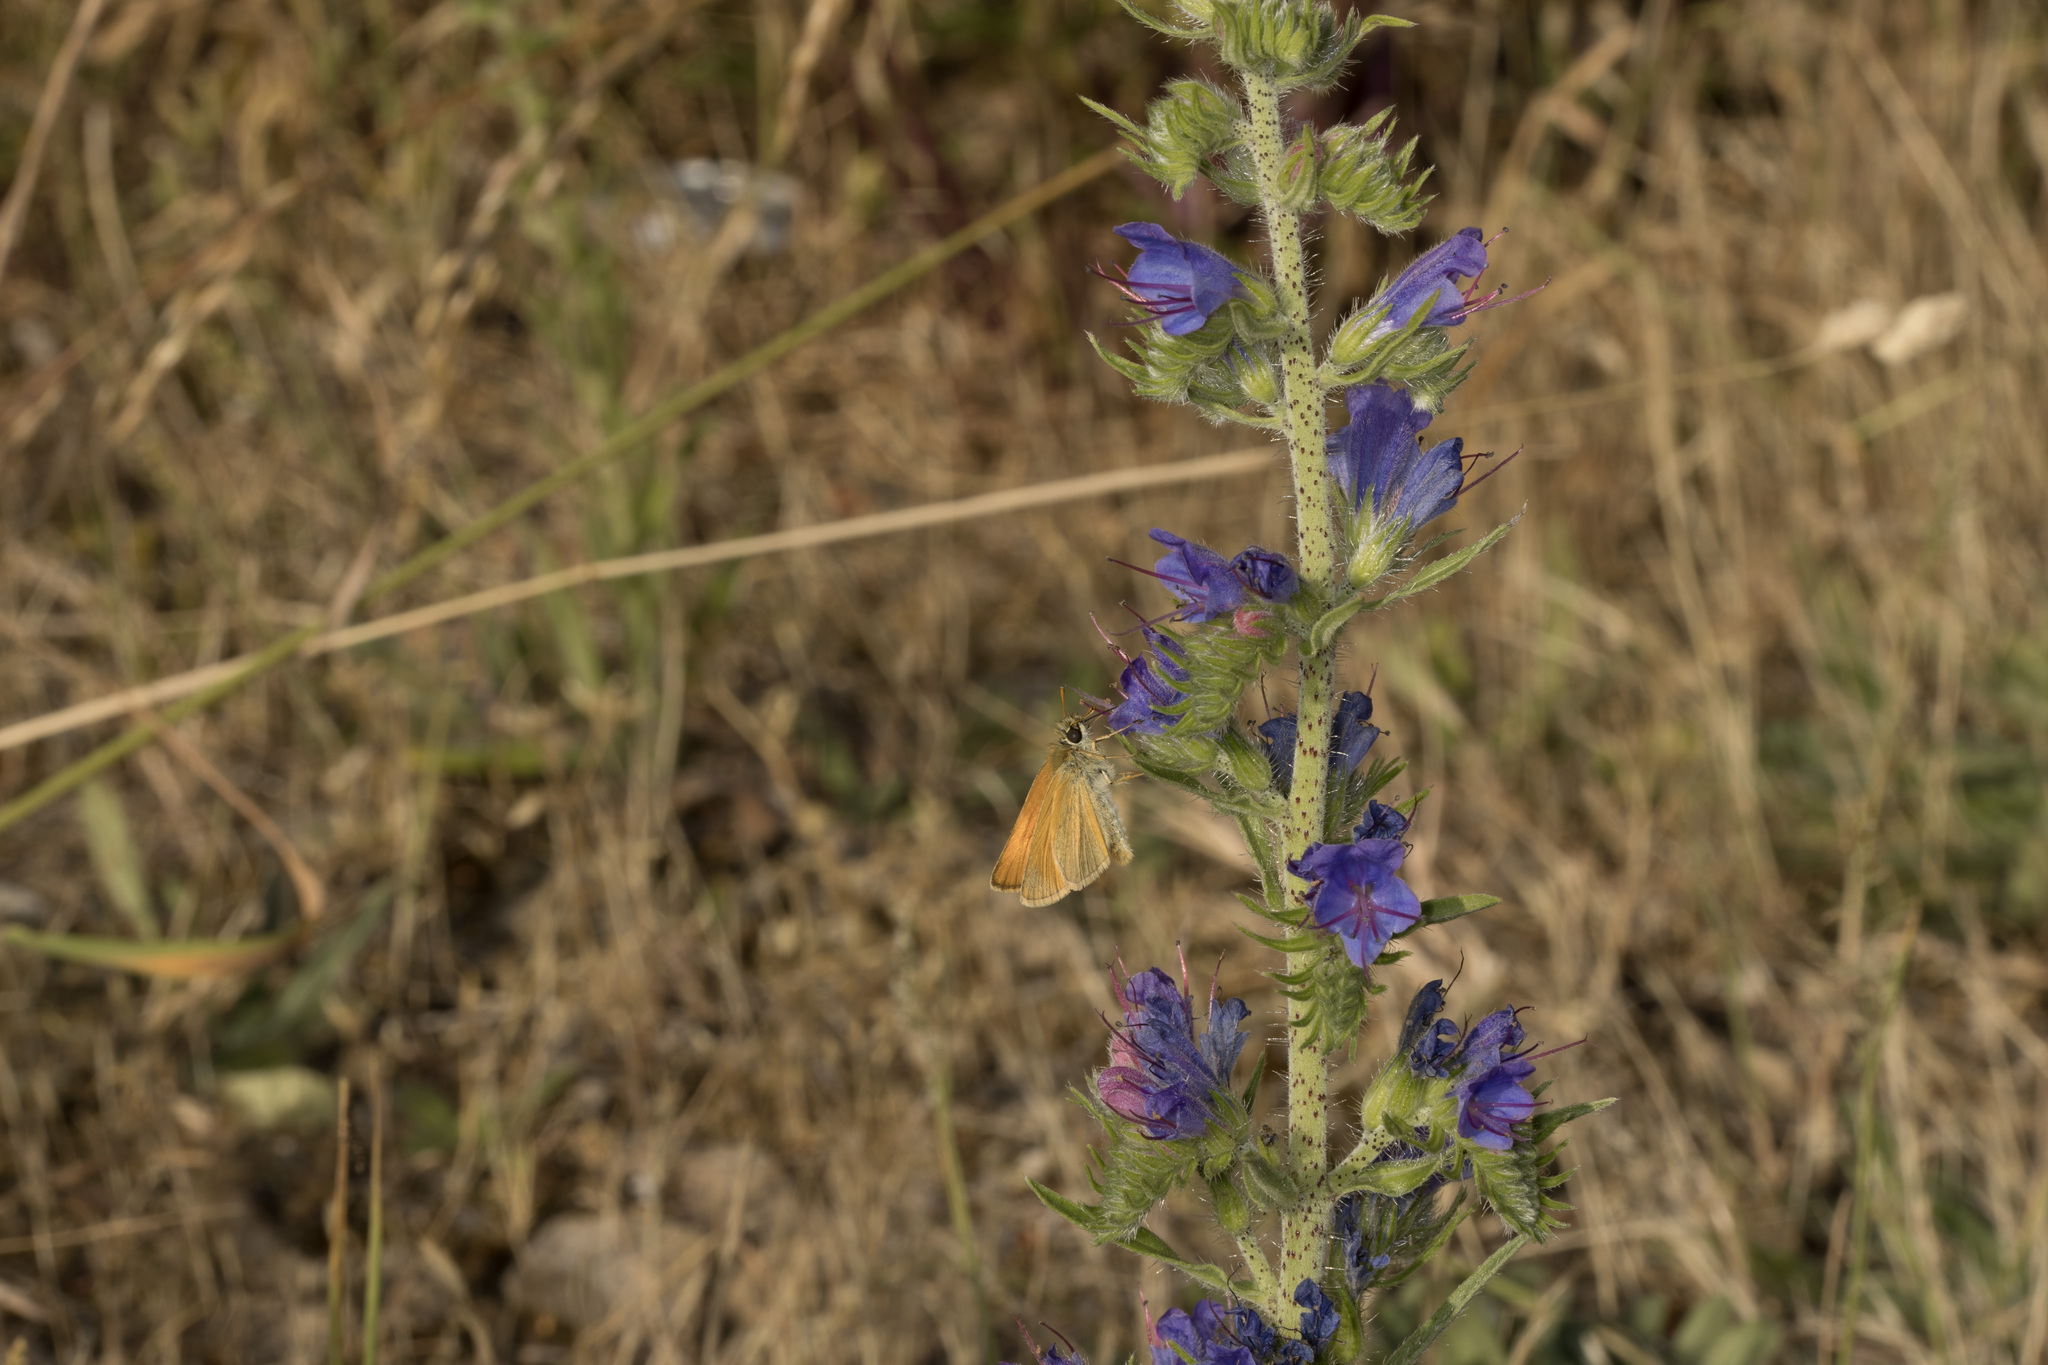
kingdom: Animalia
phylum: Arthropoda
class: Insecta
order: Lepidoptera
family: Hesperiidae
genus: Thymelicus
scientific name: Thymelicus sylvestris
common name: Small skipper
